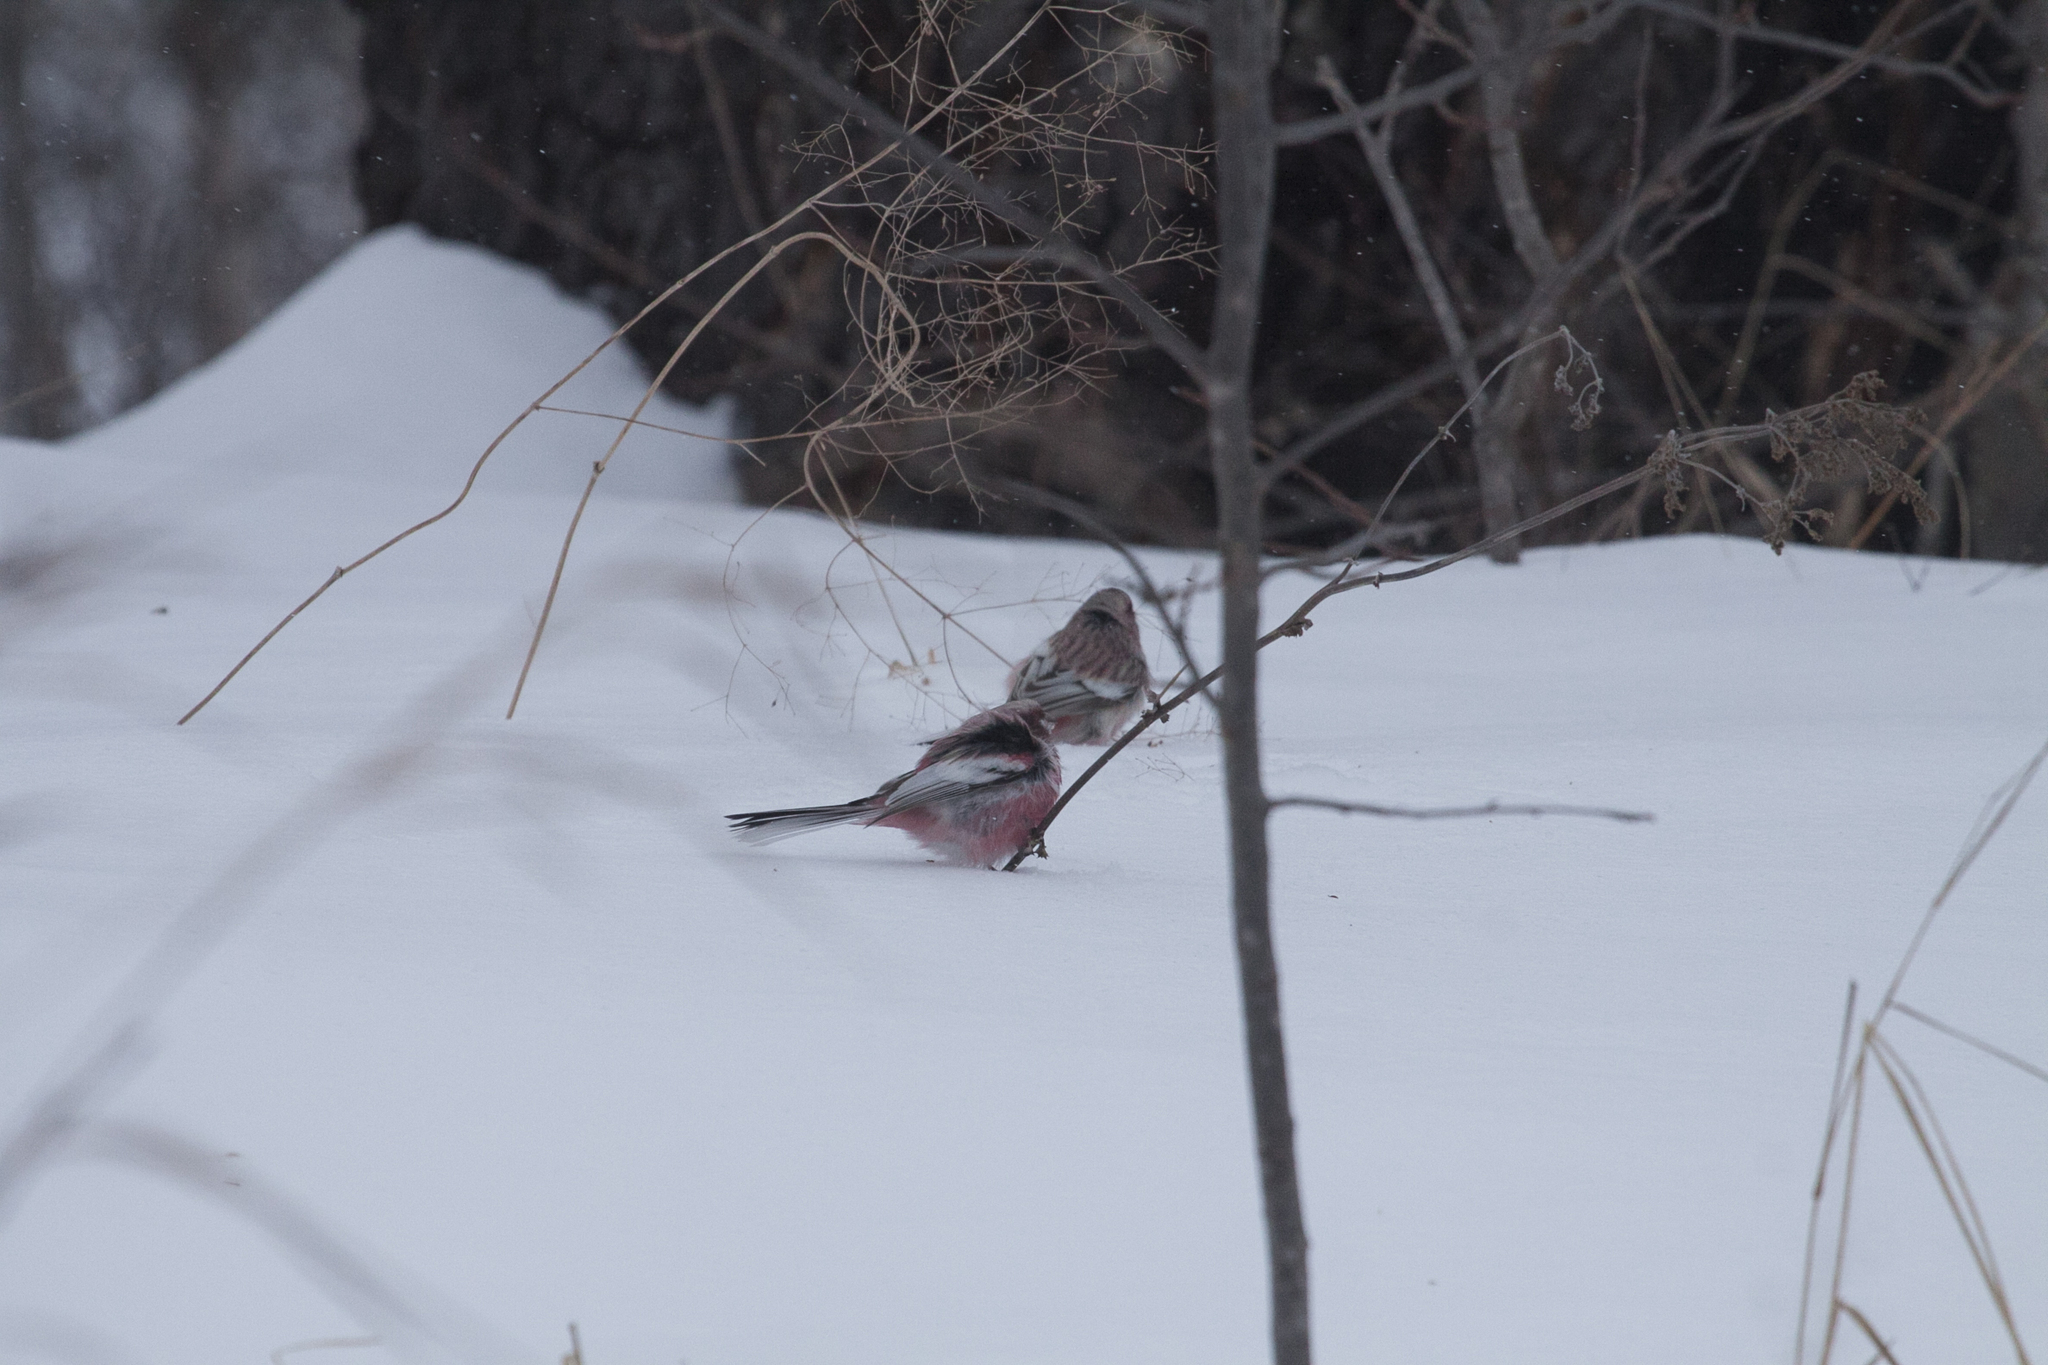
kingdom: Animalia
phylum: Chordata
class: Aves
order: Passeriformes
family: Fringillidae
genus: Carpodacus
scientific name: Carpodacus sibiricus
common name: Long-tailed rosefinch
